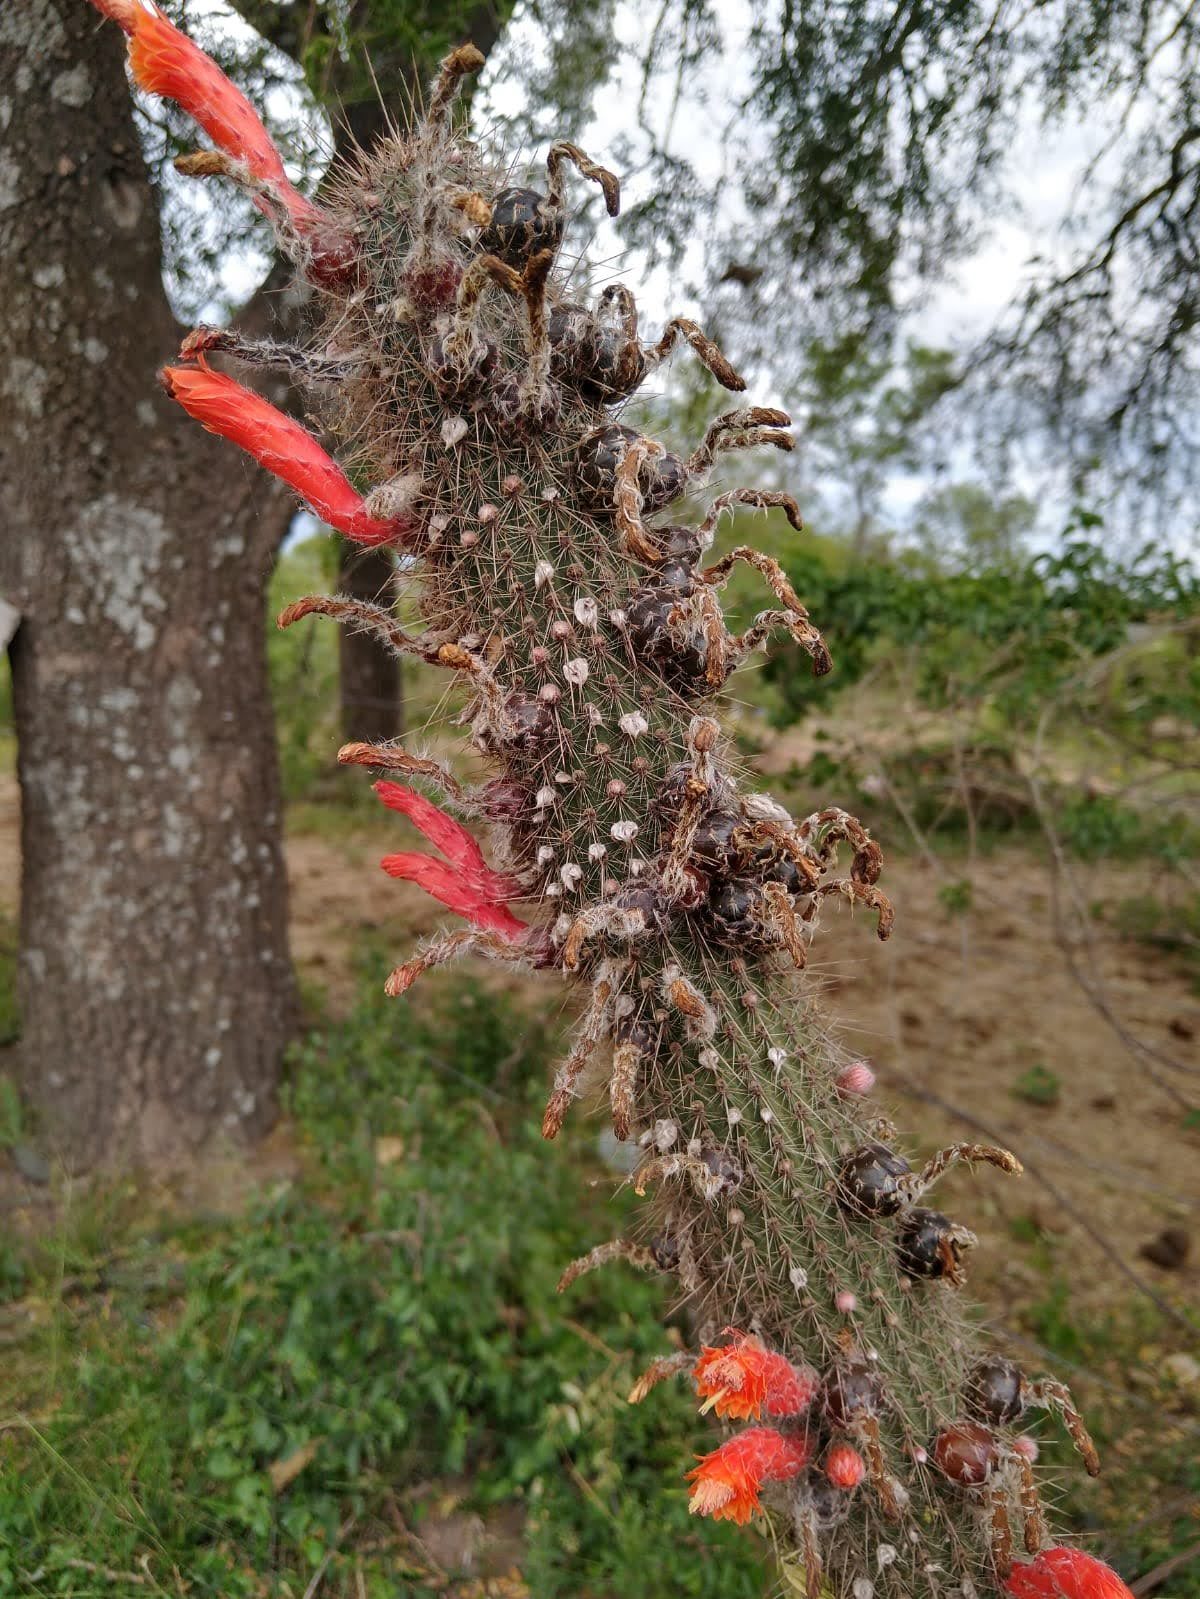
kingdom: Plantae
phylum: Tracheophyta
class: Magnoliopsida
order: Caryophyllales
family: Cactaceae
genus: Cleistocactus
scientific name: Cleistocactus baumannii
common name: Scarlet-bugler
